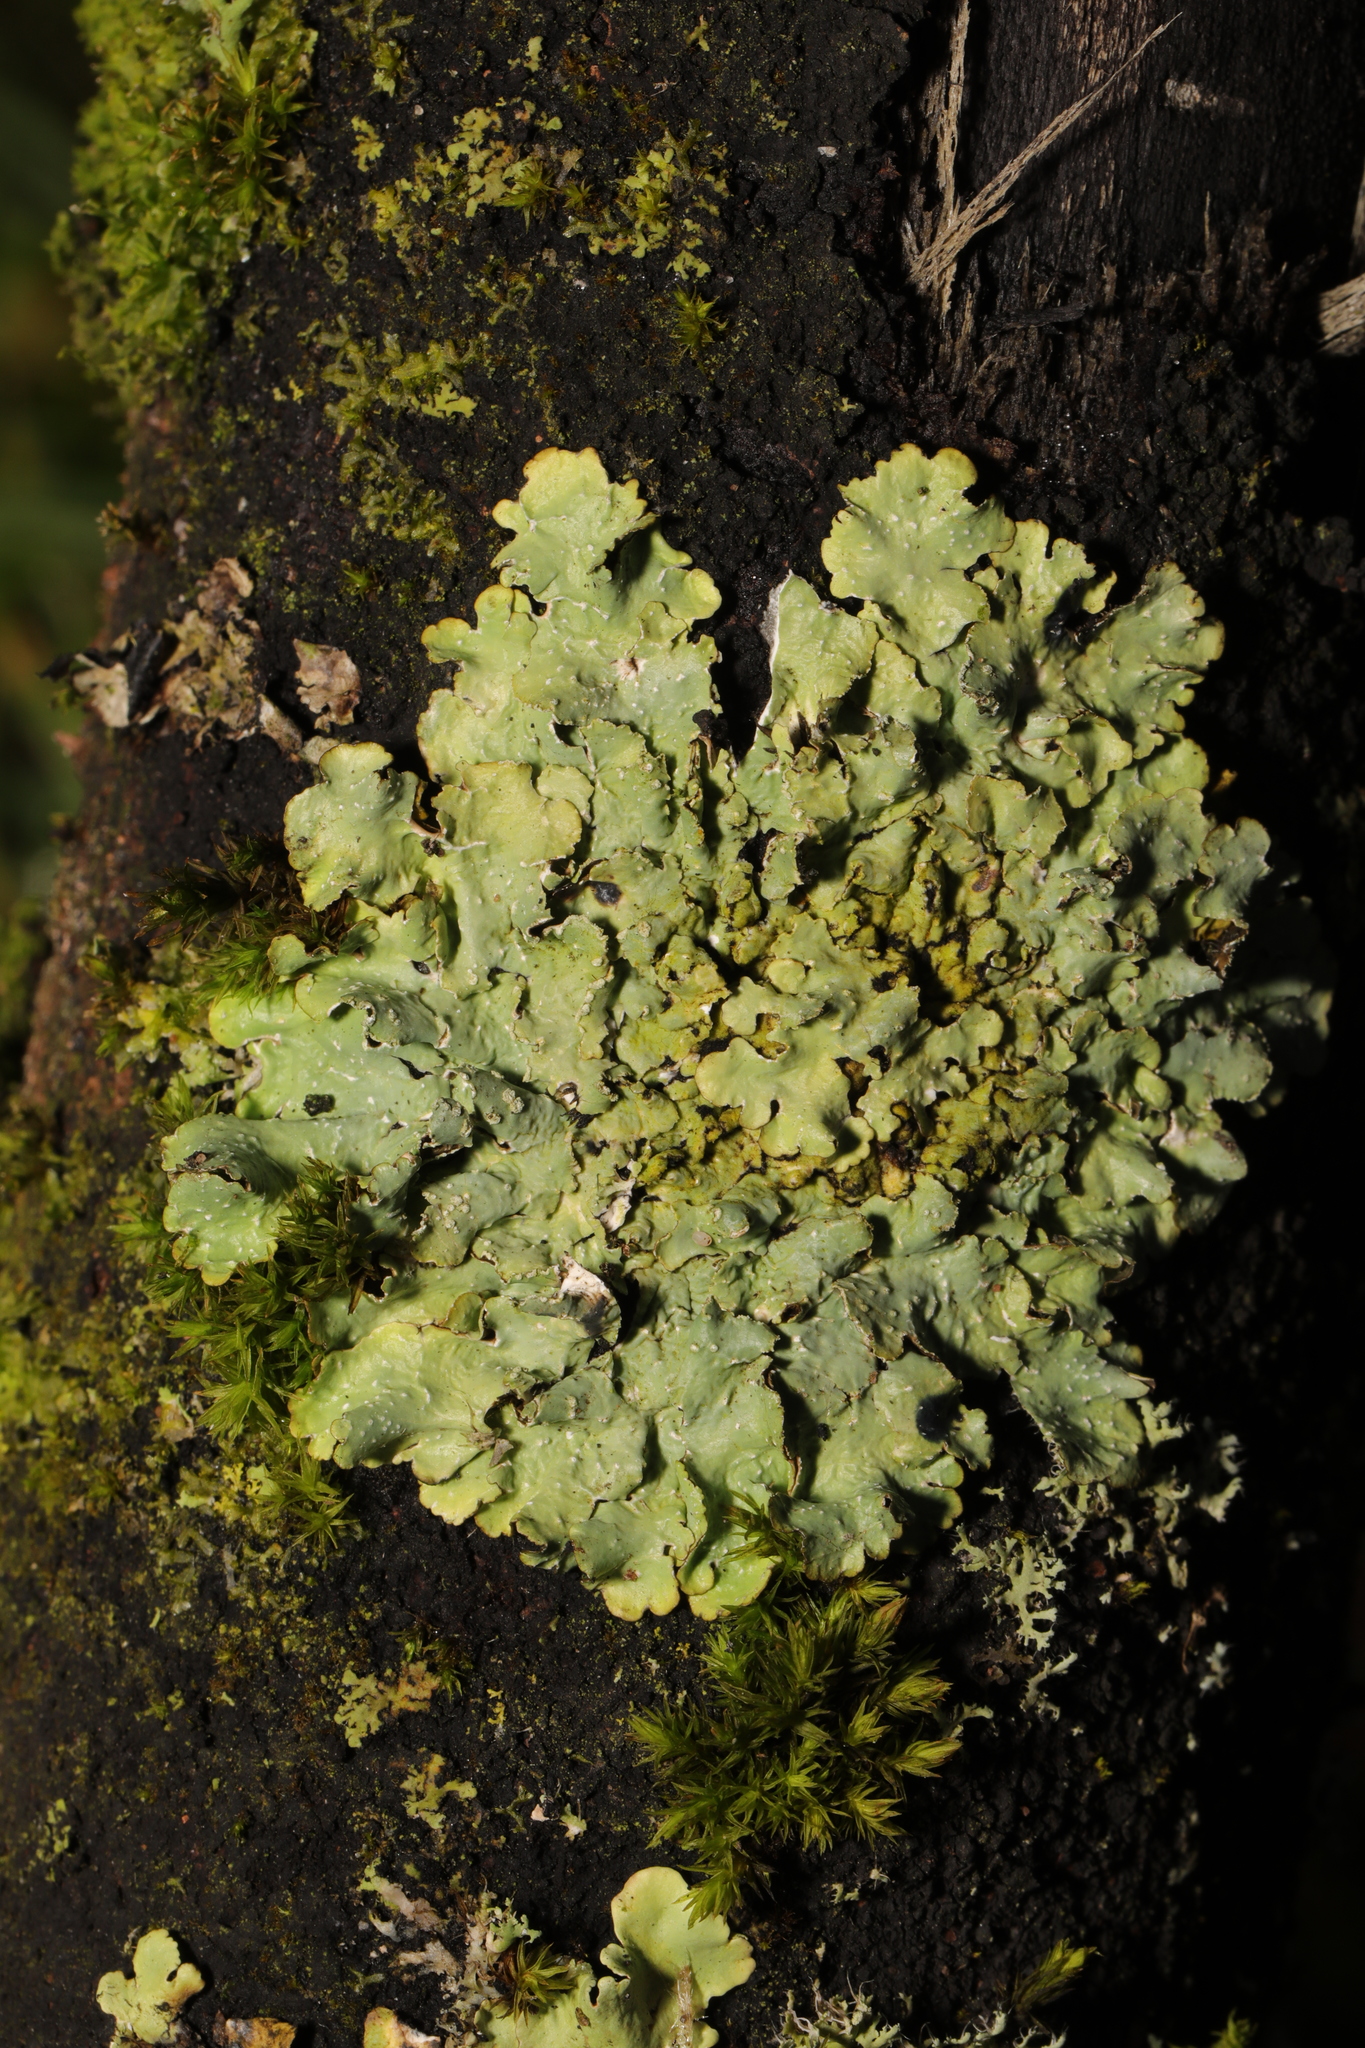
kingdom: Fungi
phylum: Ascomycota
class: Lecanoromycetes
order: Lecanorales
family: Parmeliaceae
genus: Punctelia
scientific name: Punctelia jeckeri
